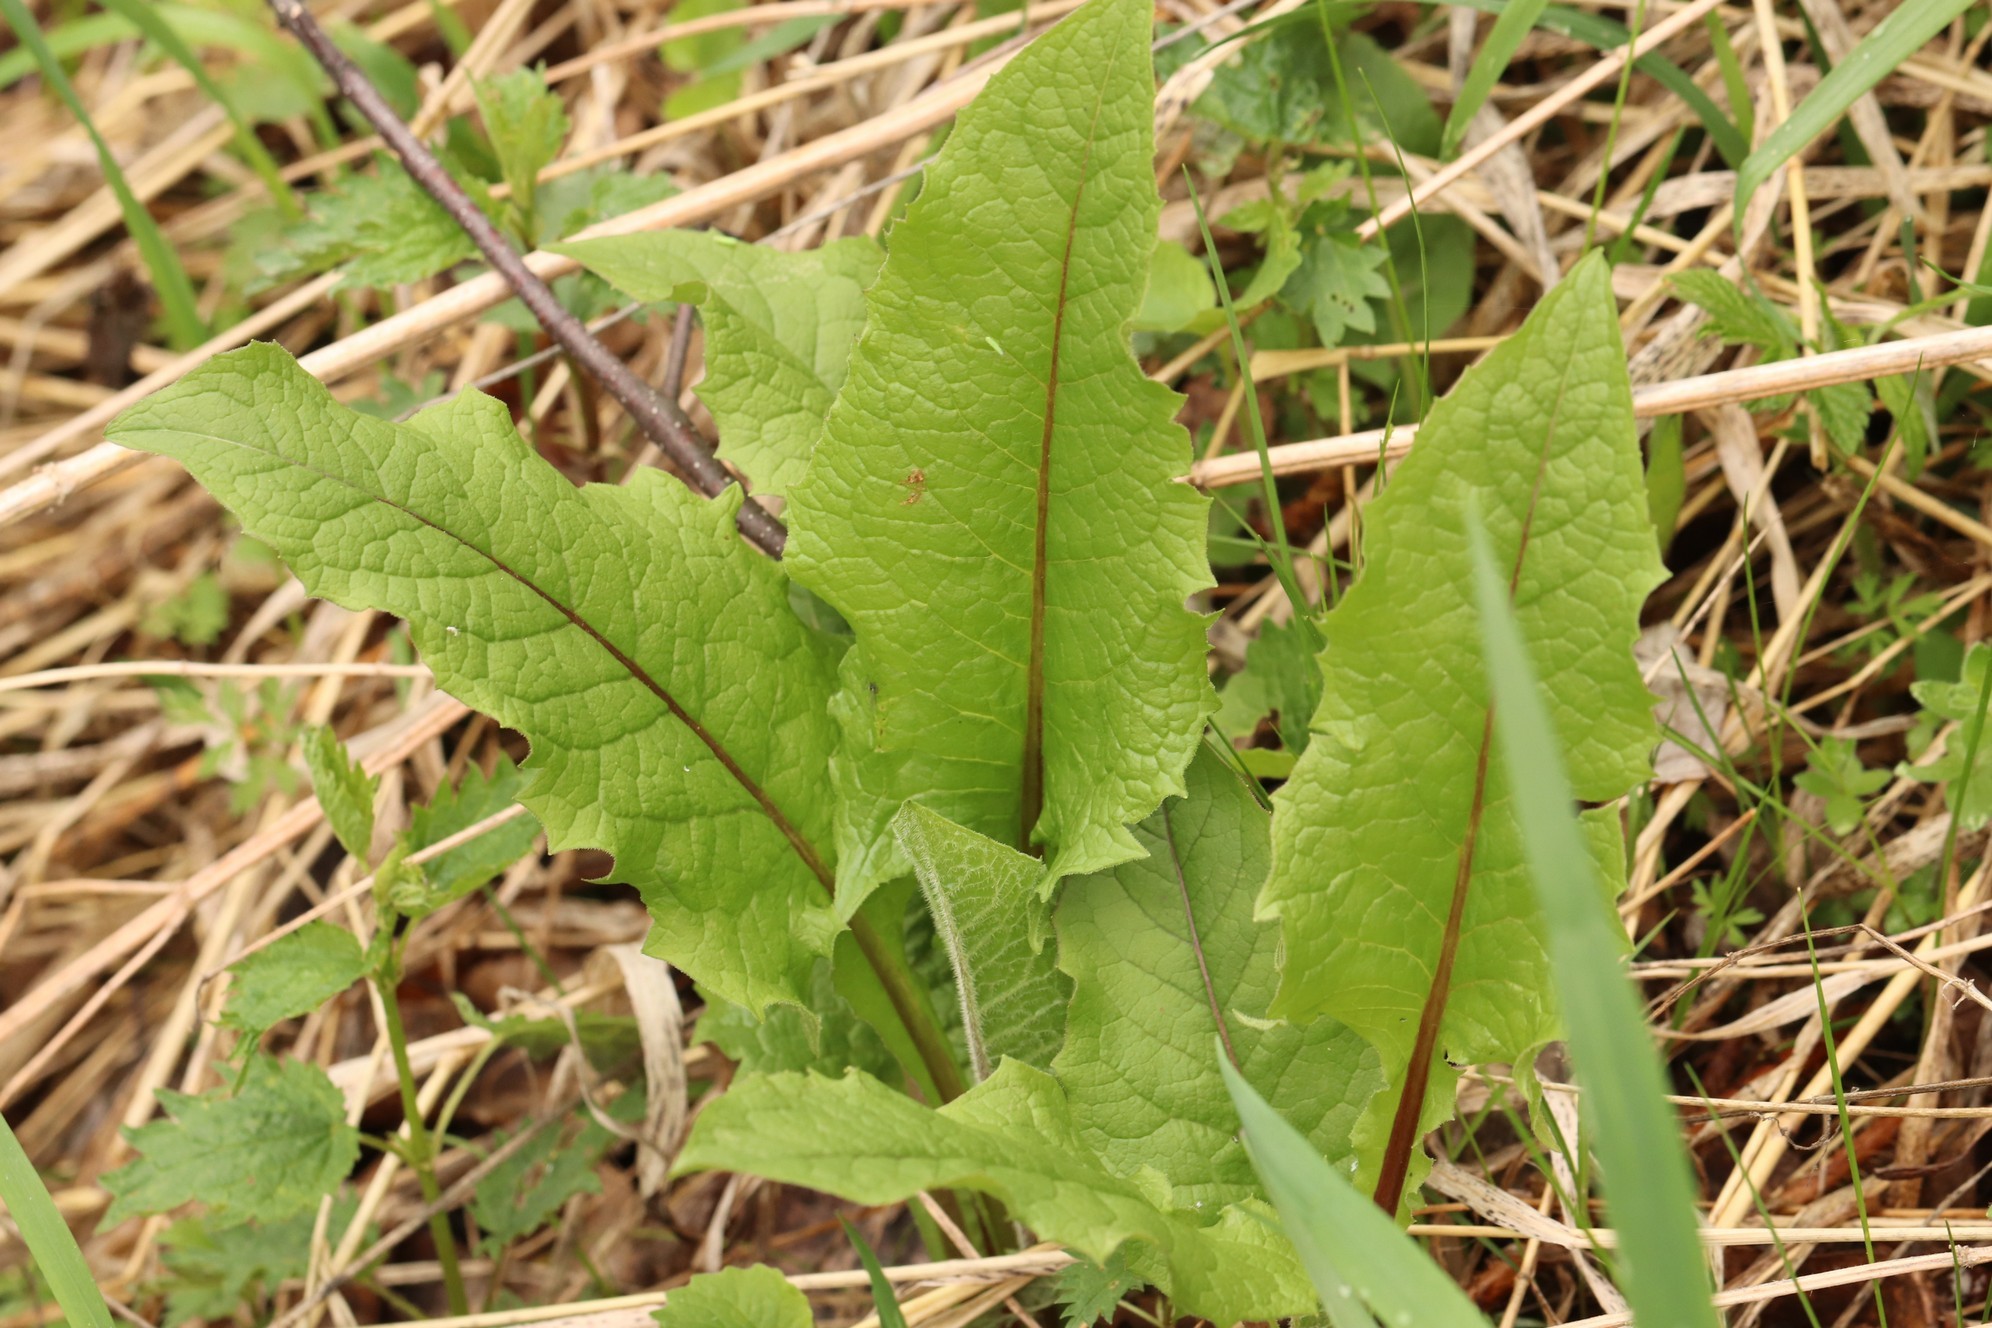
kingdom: Plantae
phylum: Tracheophyta
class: Magnoliopsida
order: Asterales
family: Asteraceae
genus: Crepis
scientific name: Crepis sibirica
